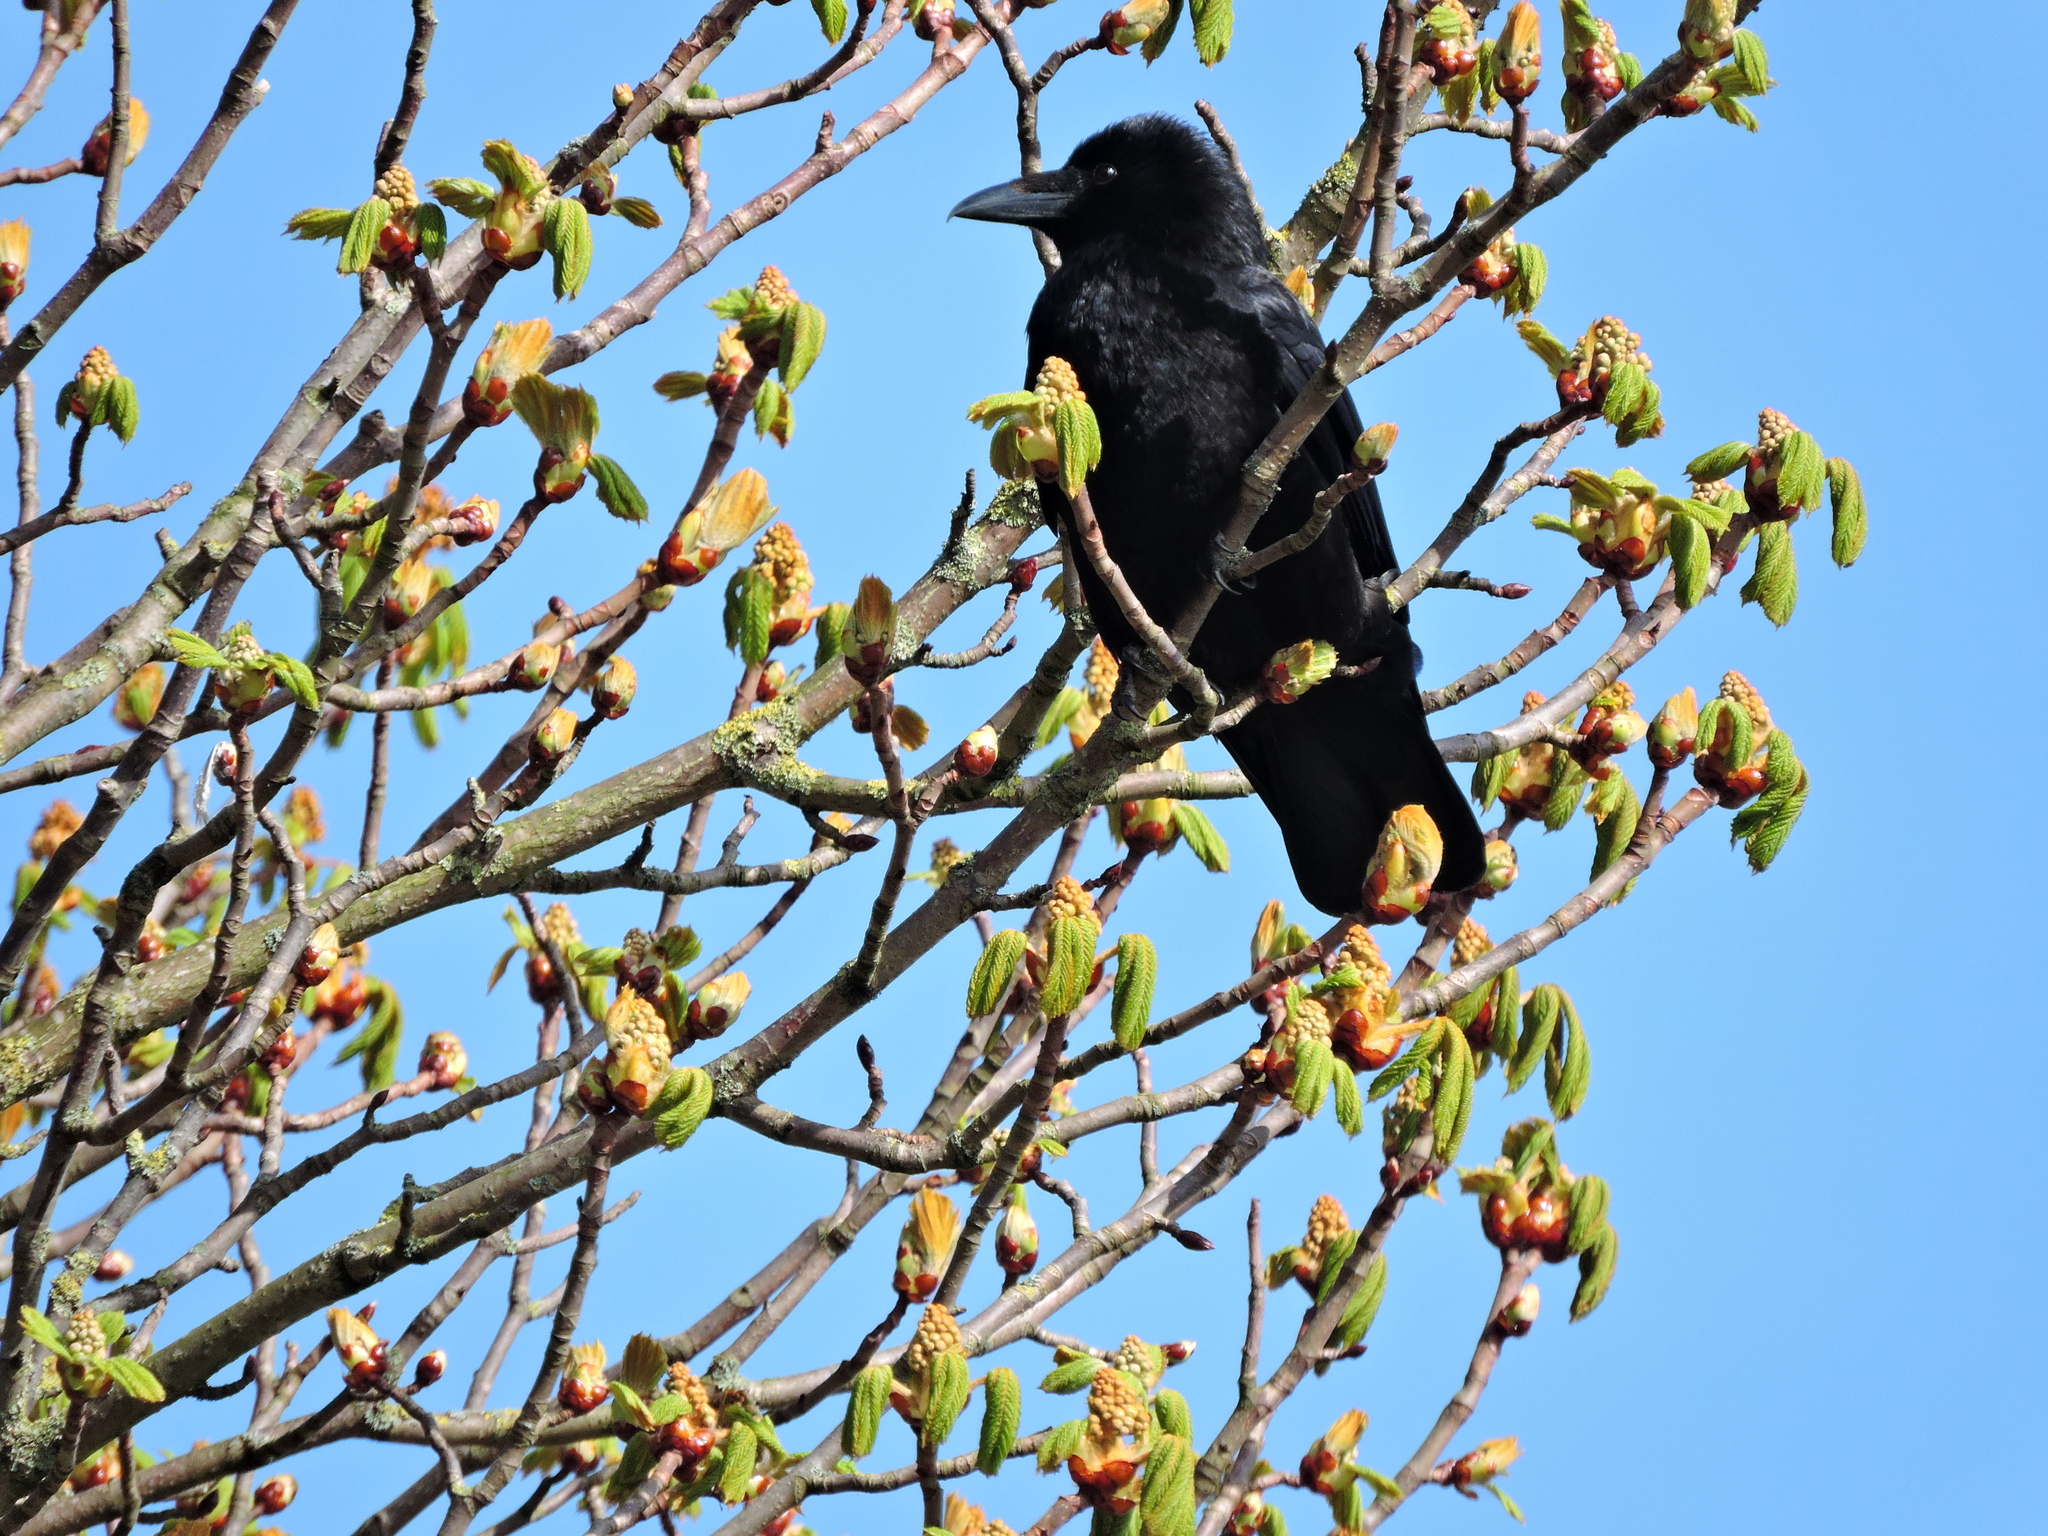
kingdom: Animalia
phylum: Chordata
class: Aves
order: Passeriformes
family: Corvidae
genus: Corvus
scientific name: Corvus corone
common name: Carrion crow
